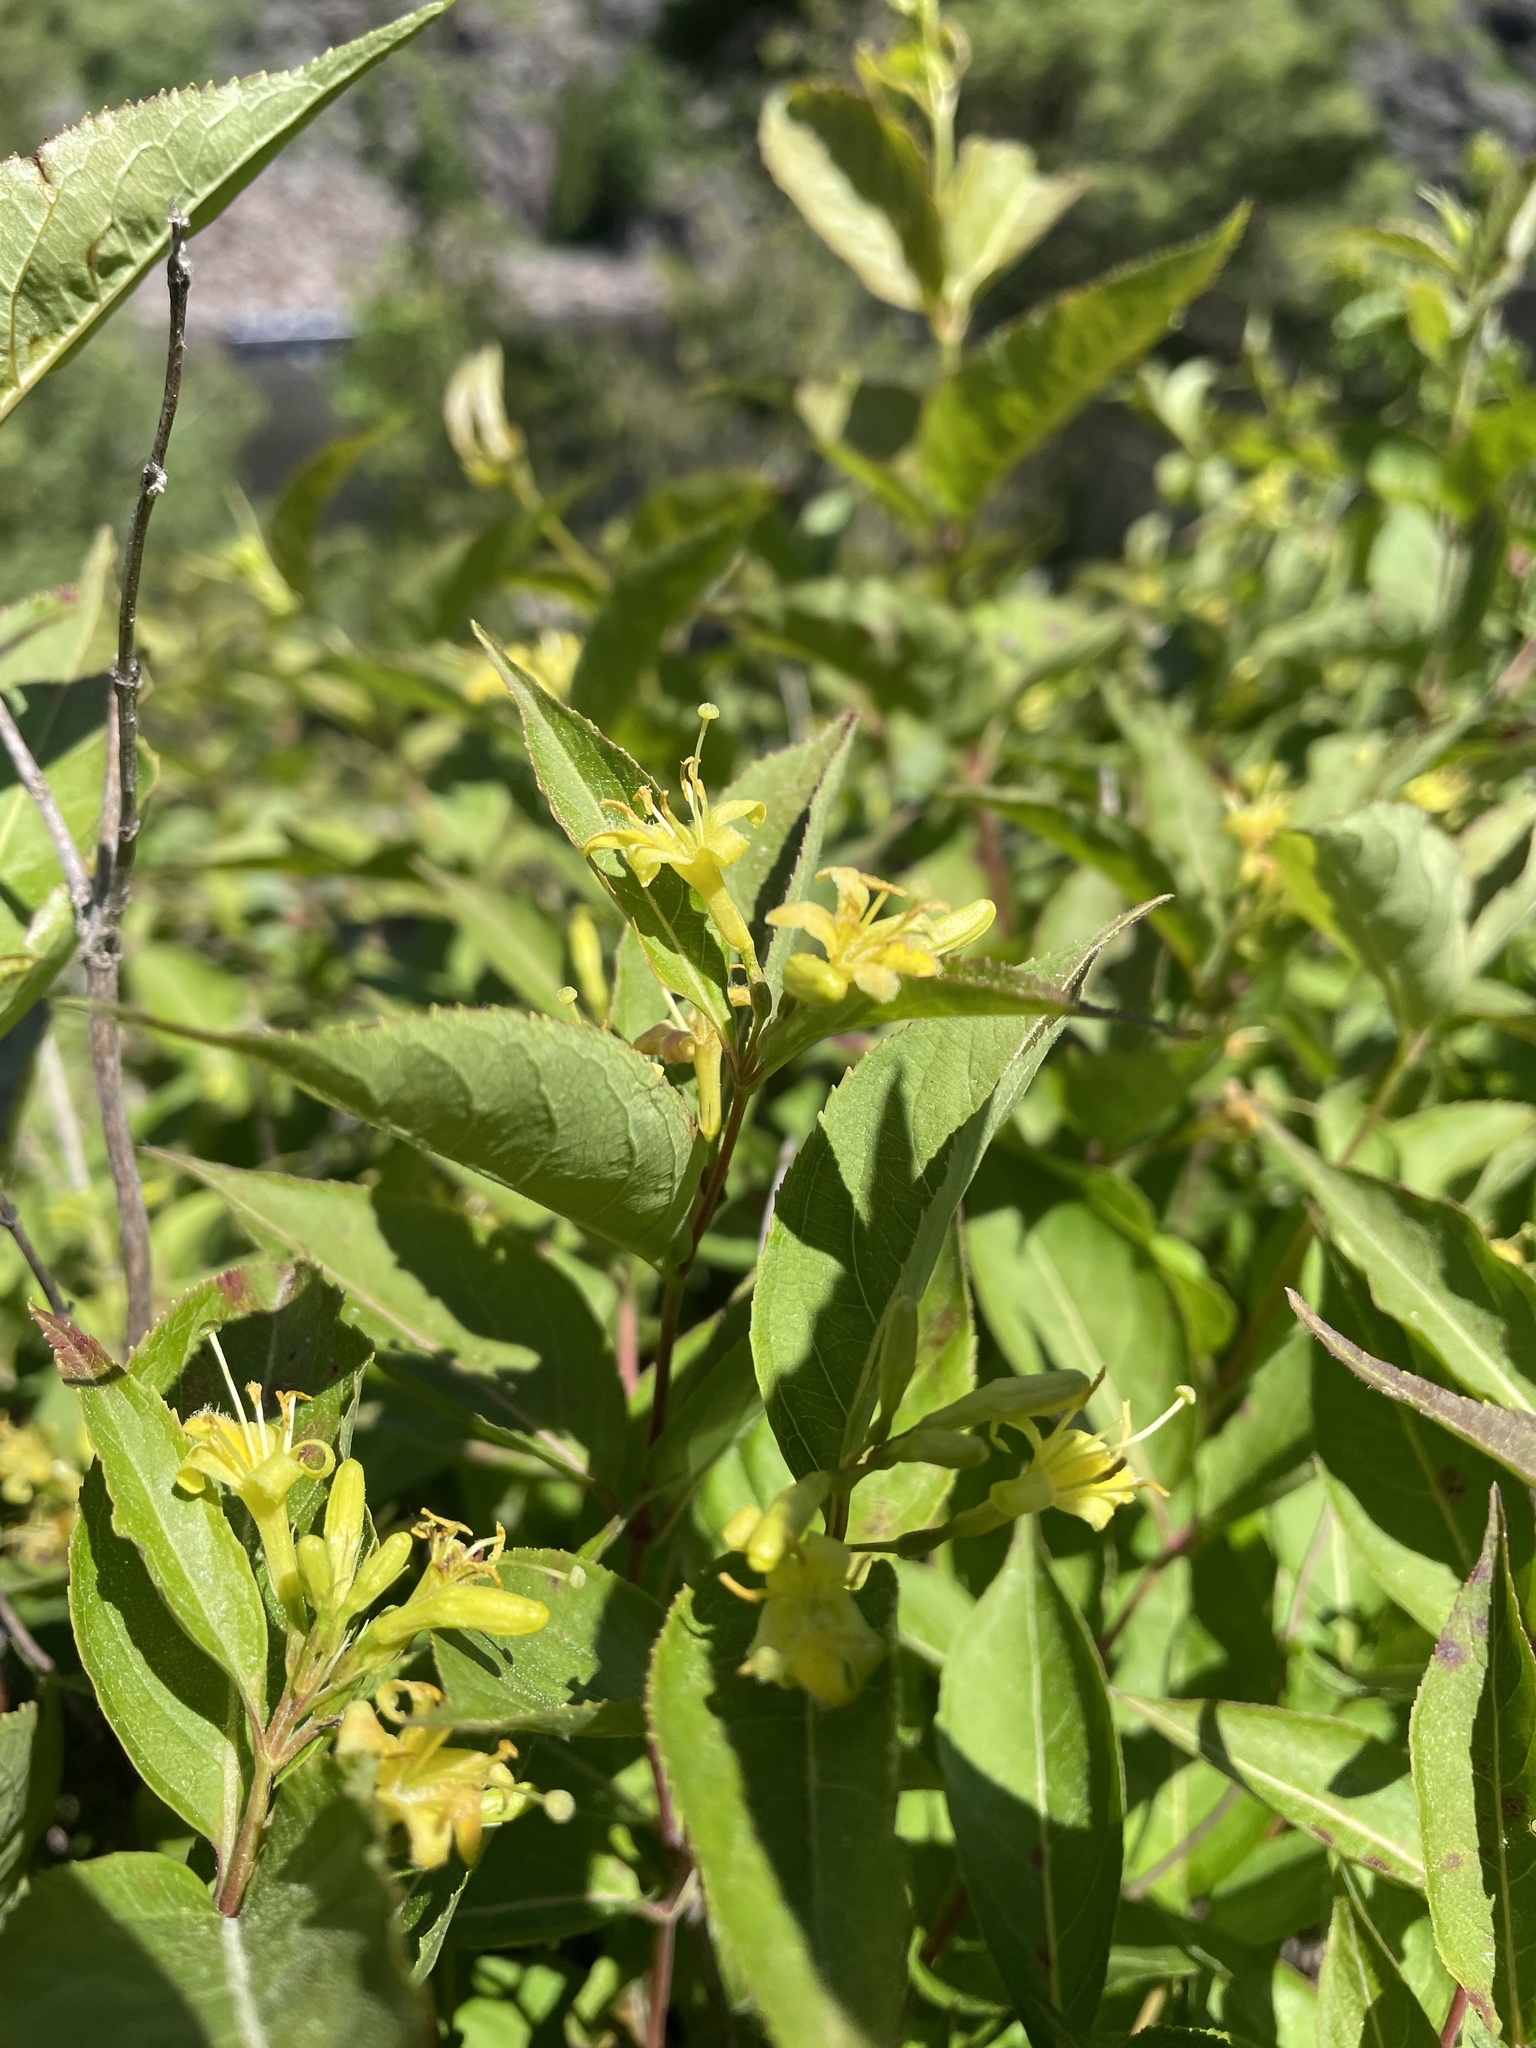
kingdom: Plantae
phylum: Tracheophyta
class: Magnoliopsida
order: Dipsacales
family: Caprifoliaceae
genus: Diervilla
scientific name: Diervilla lonicera
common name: Bush-honeysuckle
